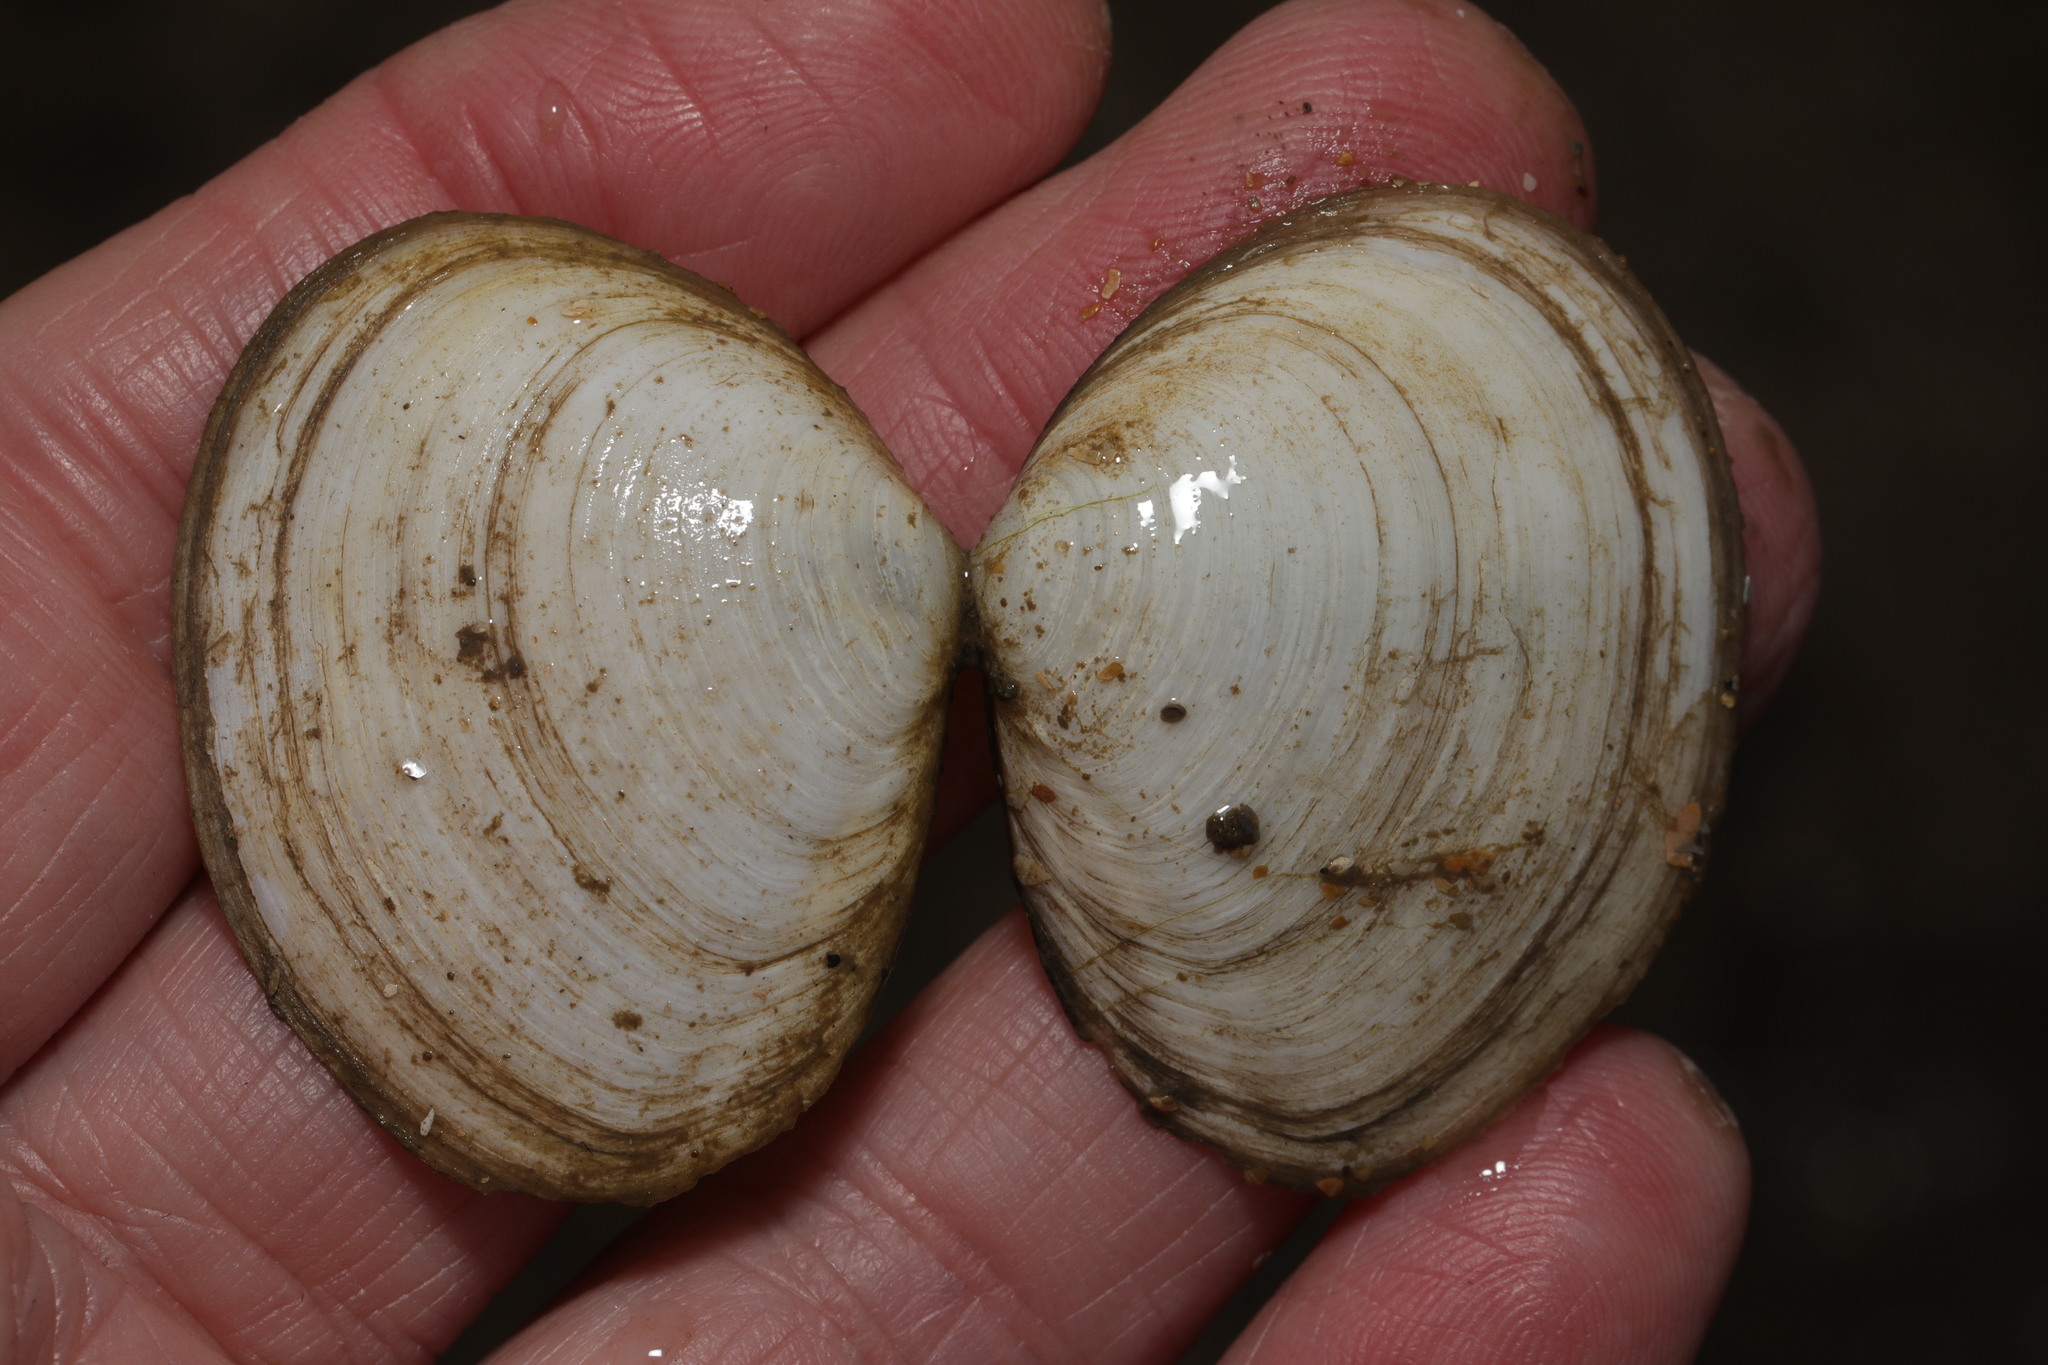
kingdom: Animalia
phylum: Mollusca
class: Bivalvia
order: Cardiida
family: Tellinidae
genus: Macoma
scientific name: Macoma balthica
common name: Baltic tellin
